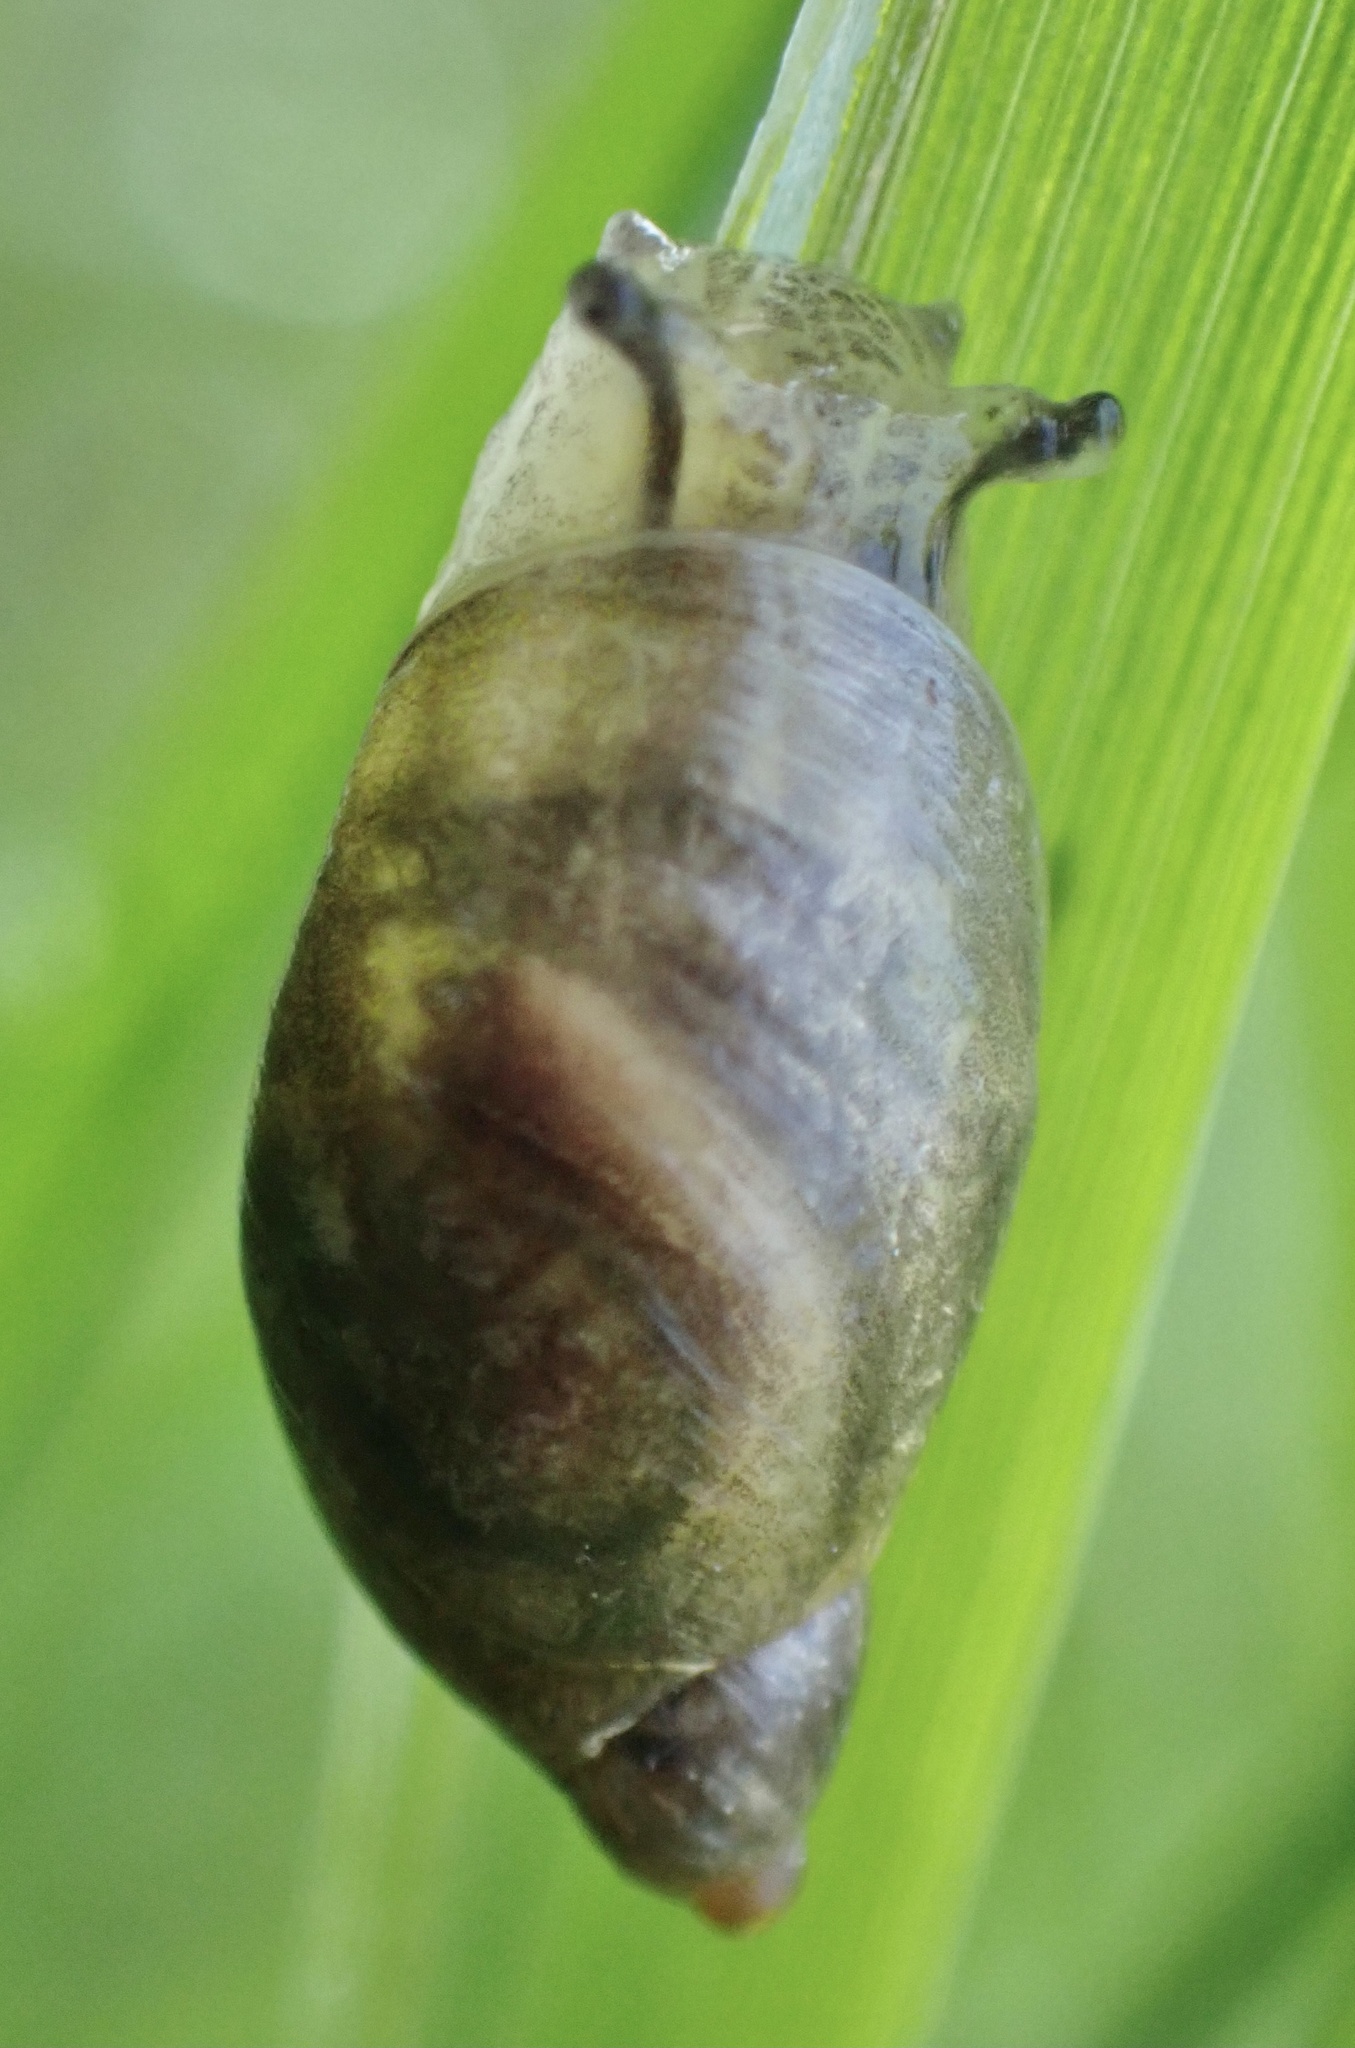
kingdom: Animalia
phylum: Mollusca
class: Gastropoda
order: Stylommatophora
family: Succineidae
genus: Succinea
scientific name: Succinea putris
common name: European ambersnail
